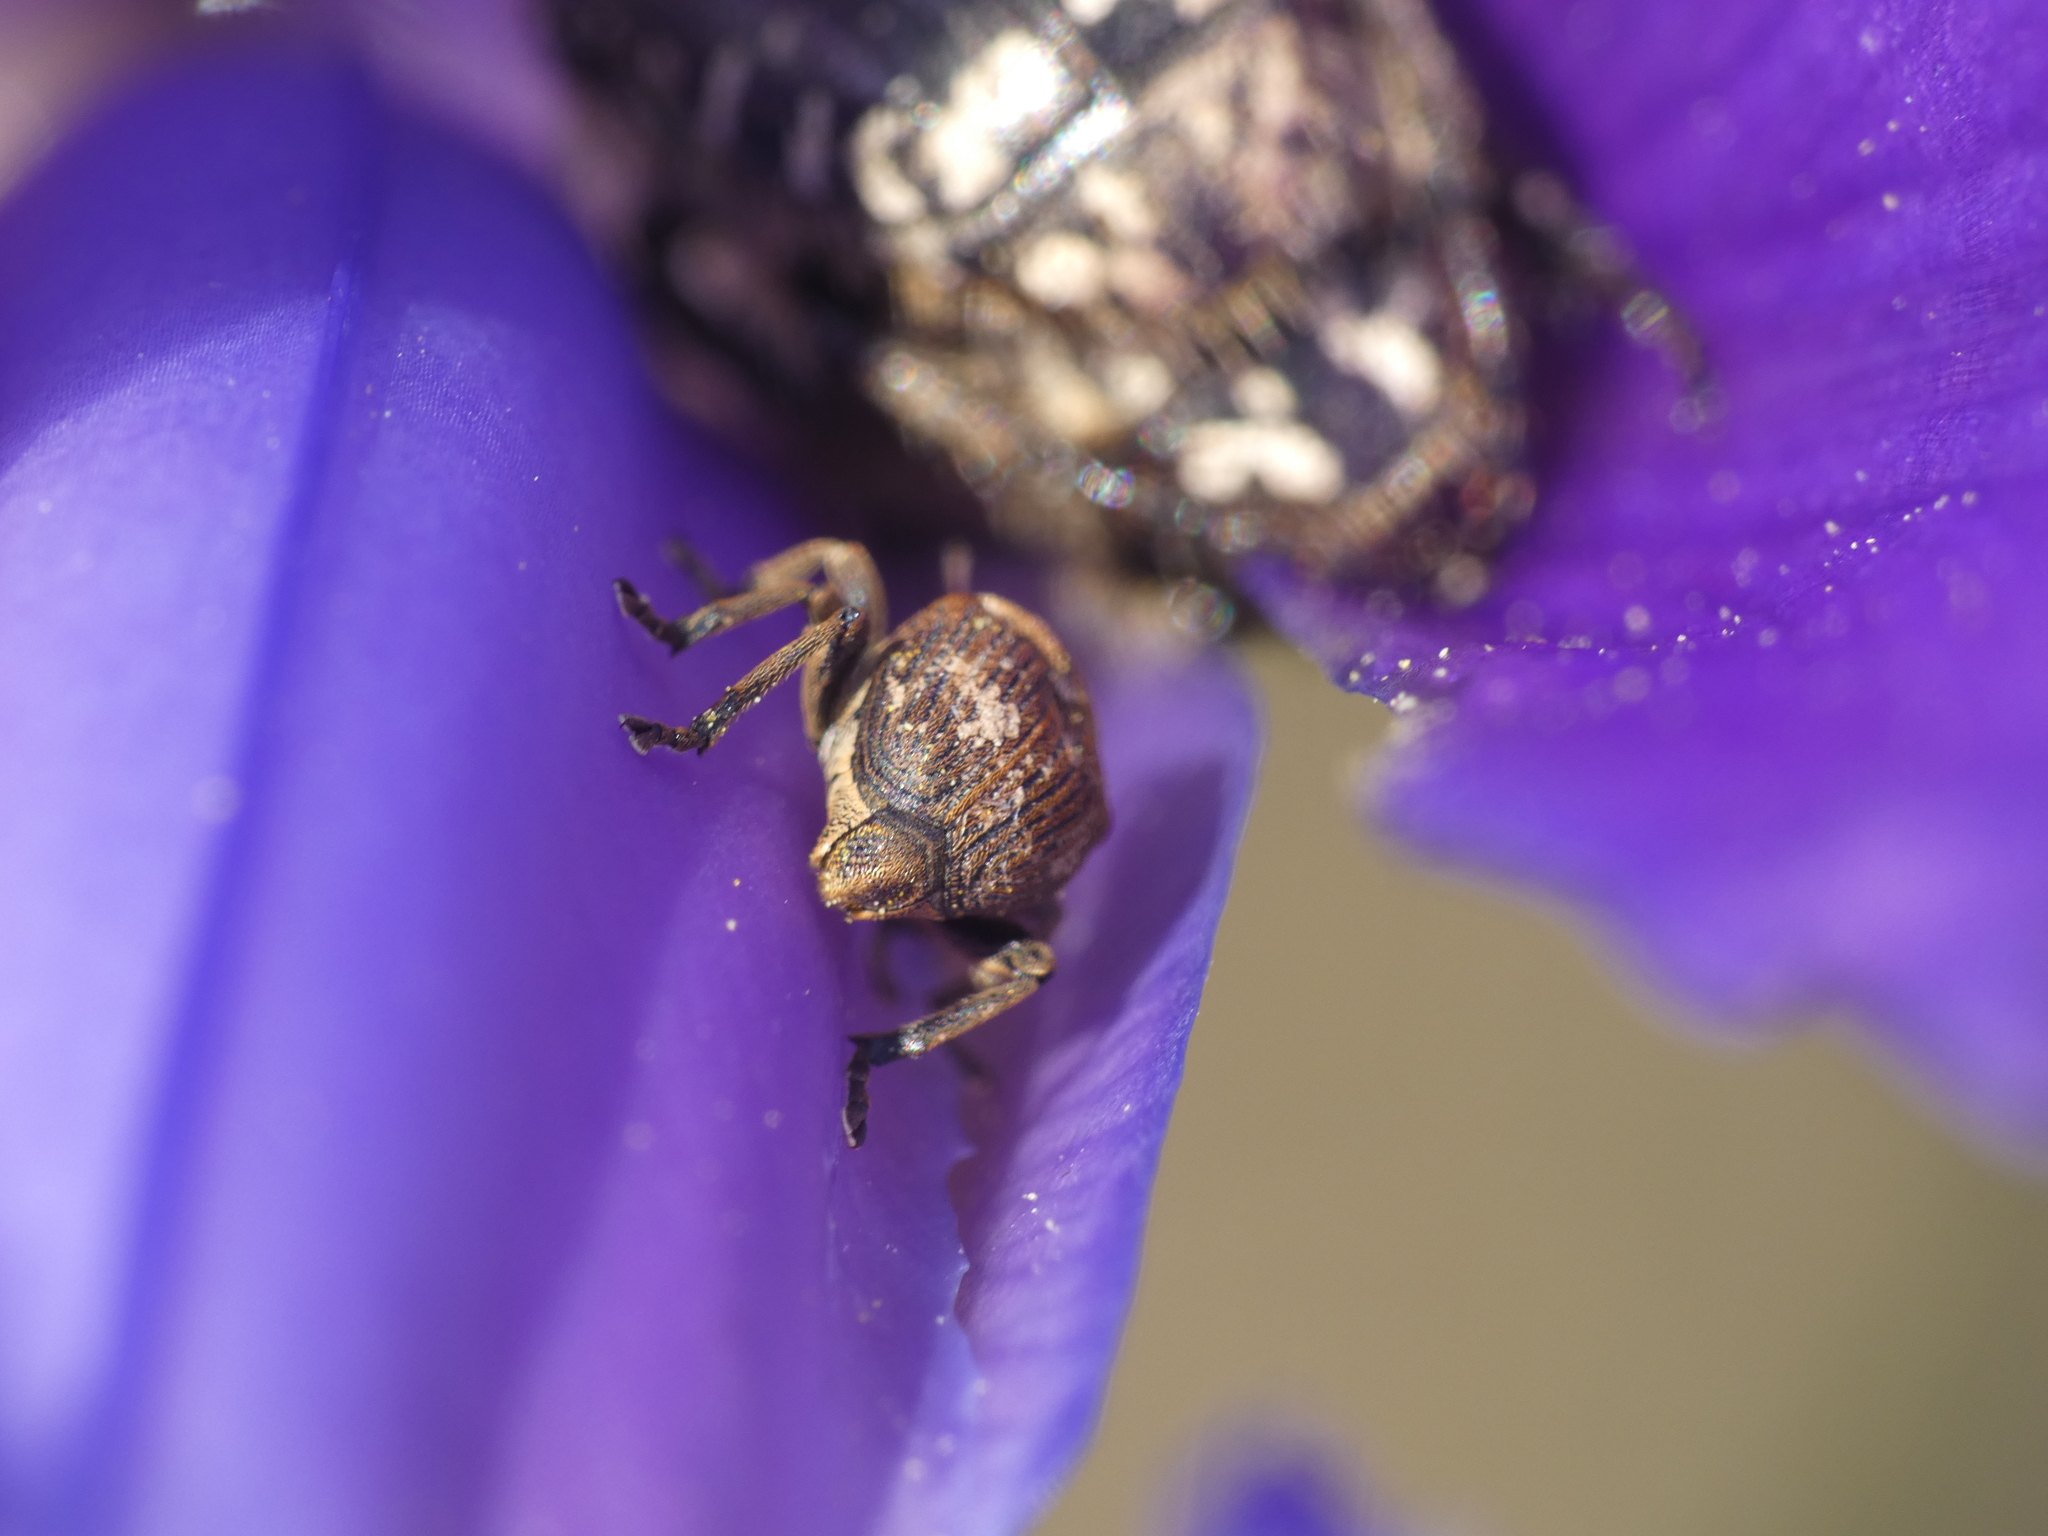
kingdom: Animalia
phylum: Arthropoda
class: Insecta
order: Coleoptera
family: Curculionidae
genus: Mononychus
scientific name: Mononychus punctumalbum
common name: Iris weevil
